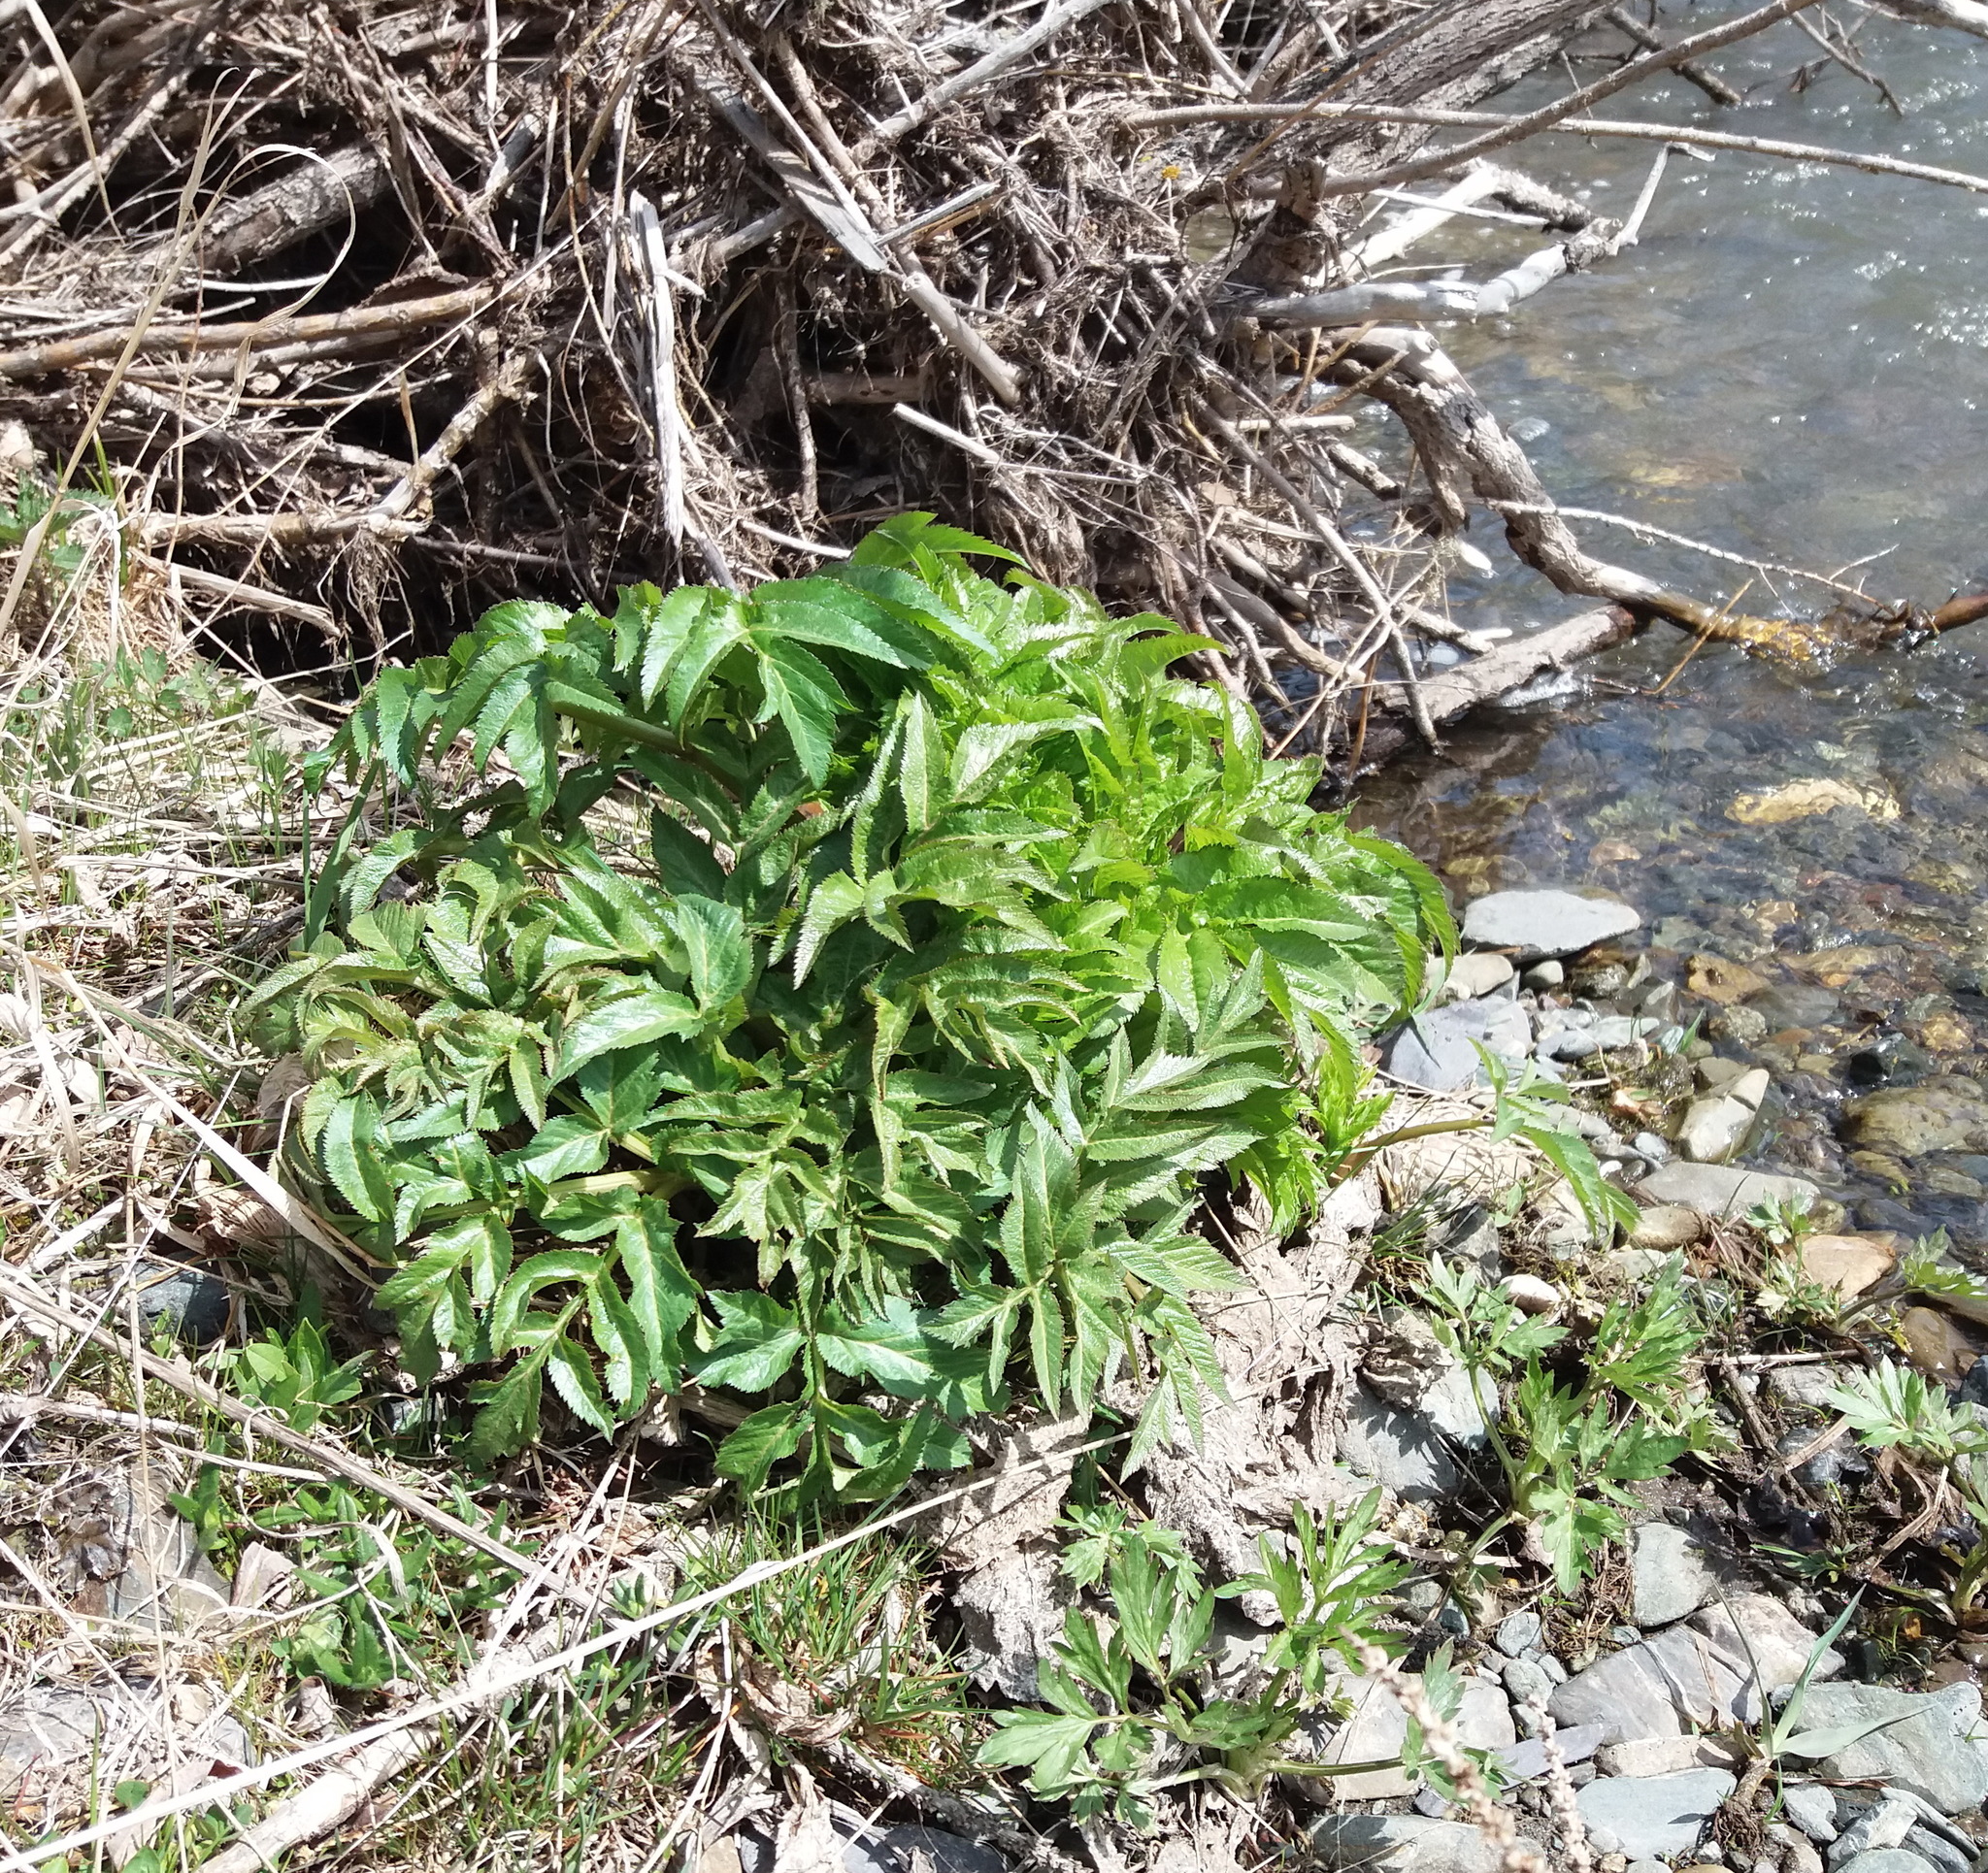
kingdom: Plantae
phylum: Tracheophyta
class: Magnoliopsida
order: Apiales
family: Apiaceae
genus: Angelica
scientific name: Angelica decurrens
